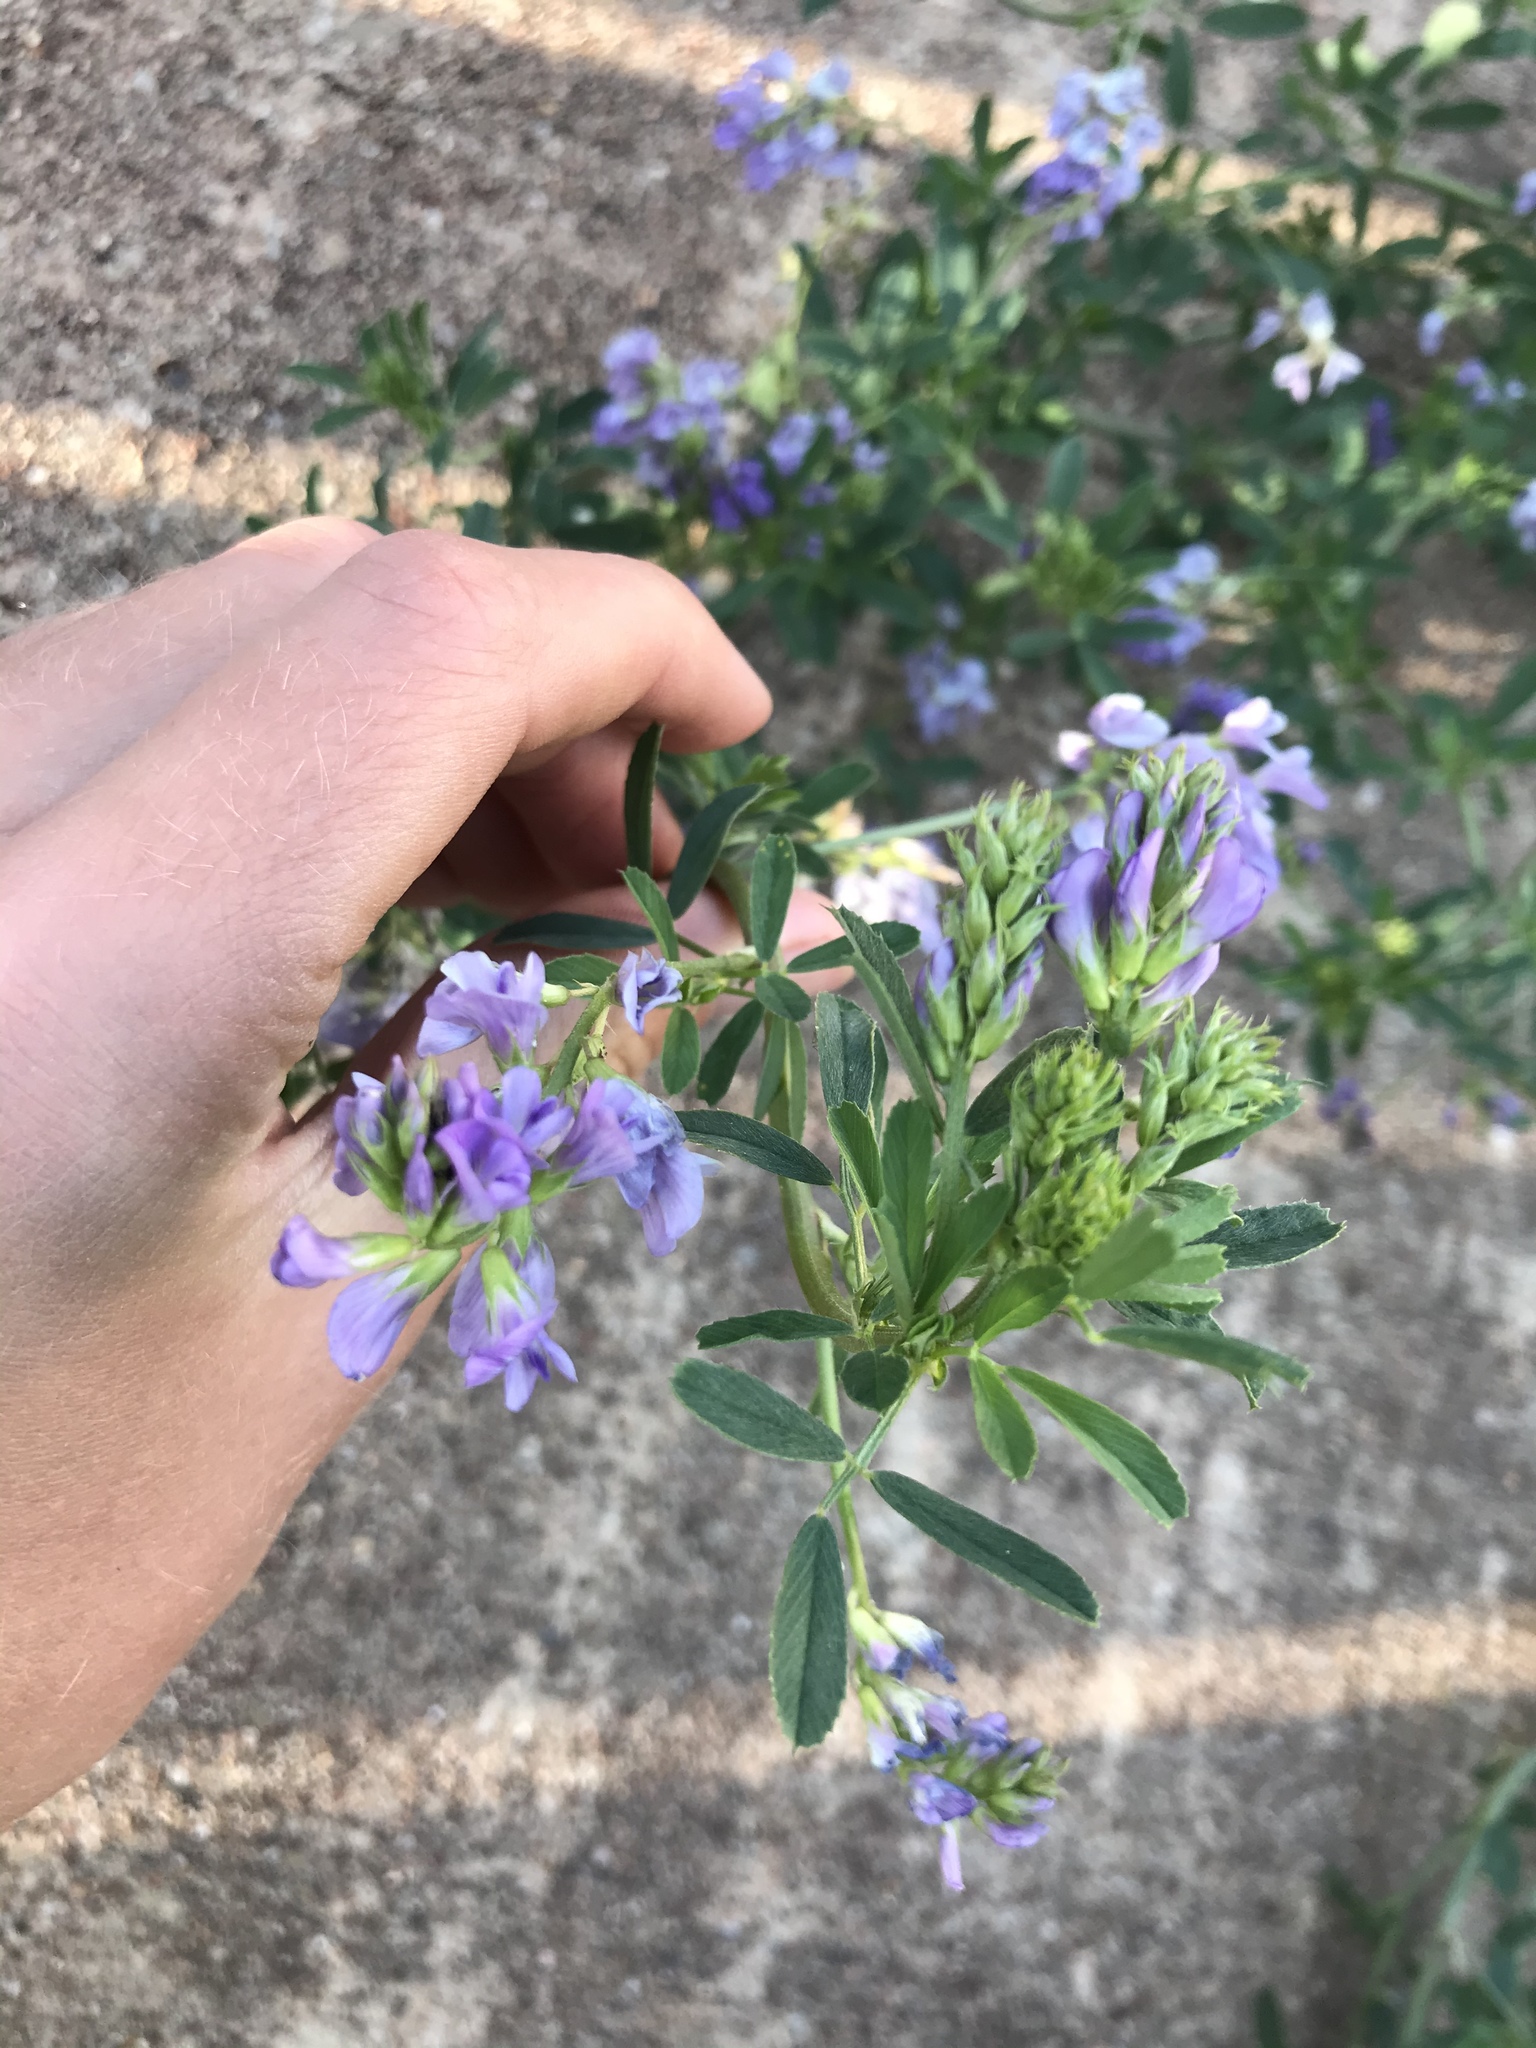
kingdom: Plantae
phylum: Tracheophyta
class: Magnoliopsida
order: Fabales
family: Fabaceae
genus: Medicago
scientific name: Medicago sativa
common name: Alfalfa
